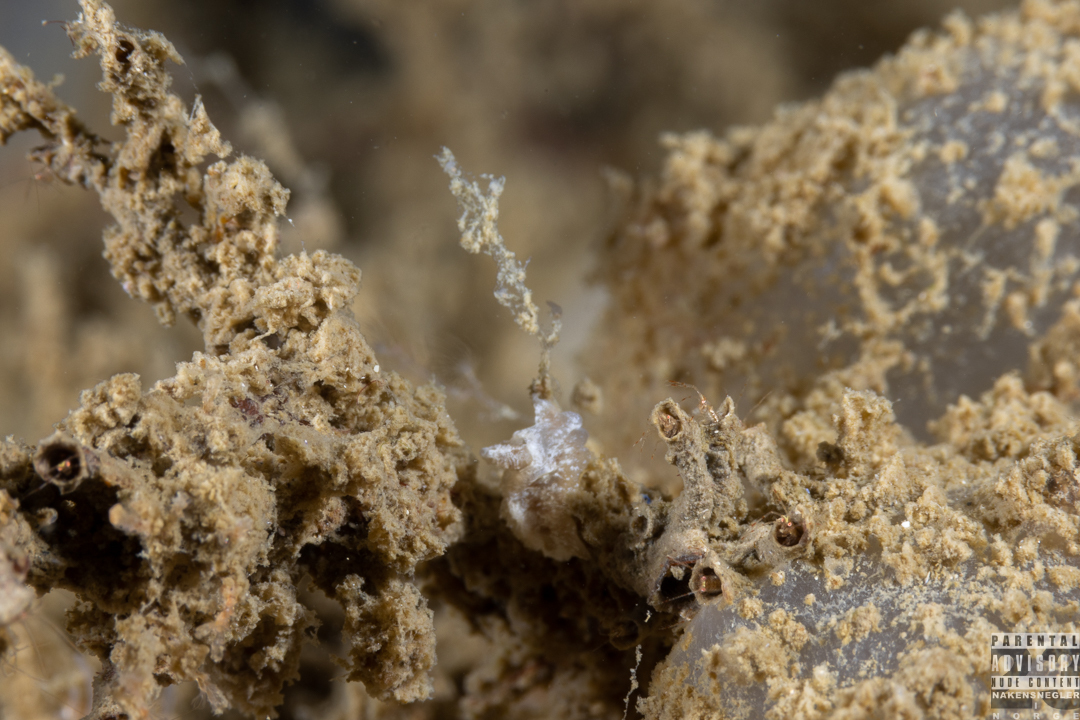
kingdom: Animalia
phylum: Mollusca
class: Gastropoda
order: Nudibranchia
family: Goniodorididae
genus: Pelagella
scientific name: Pelagella castanea
